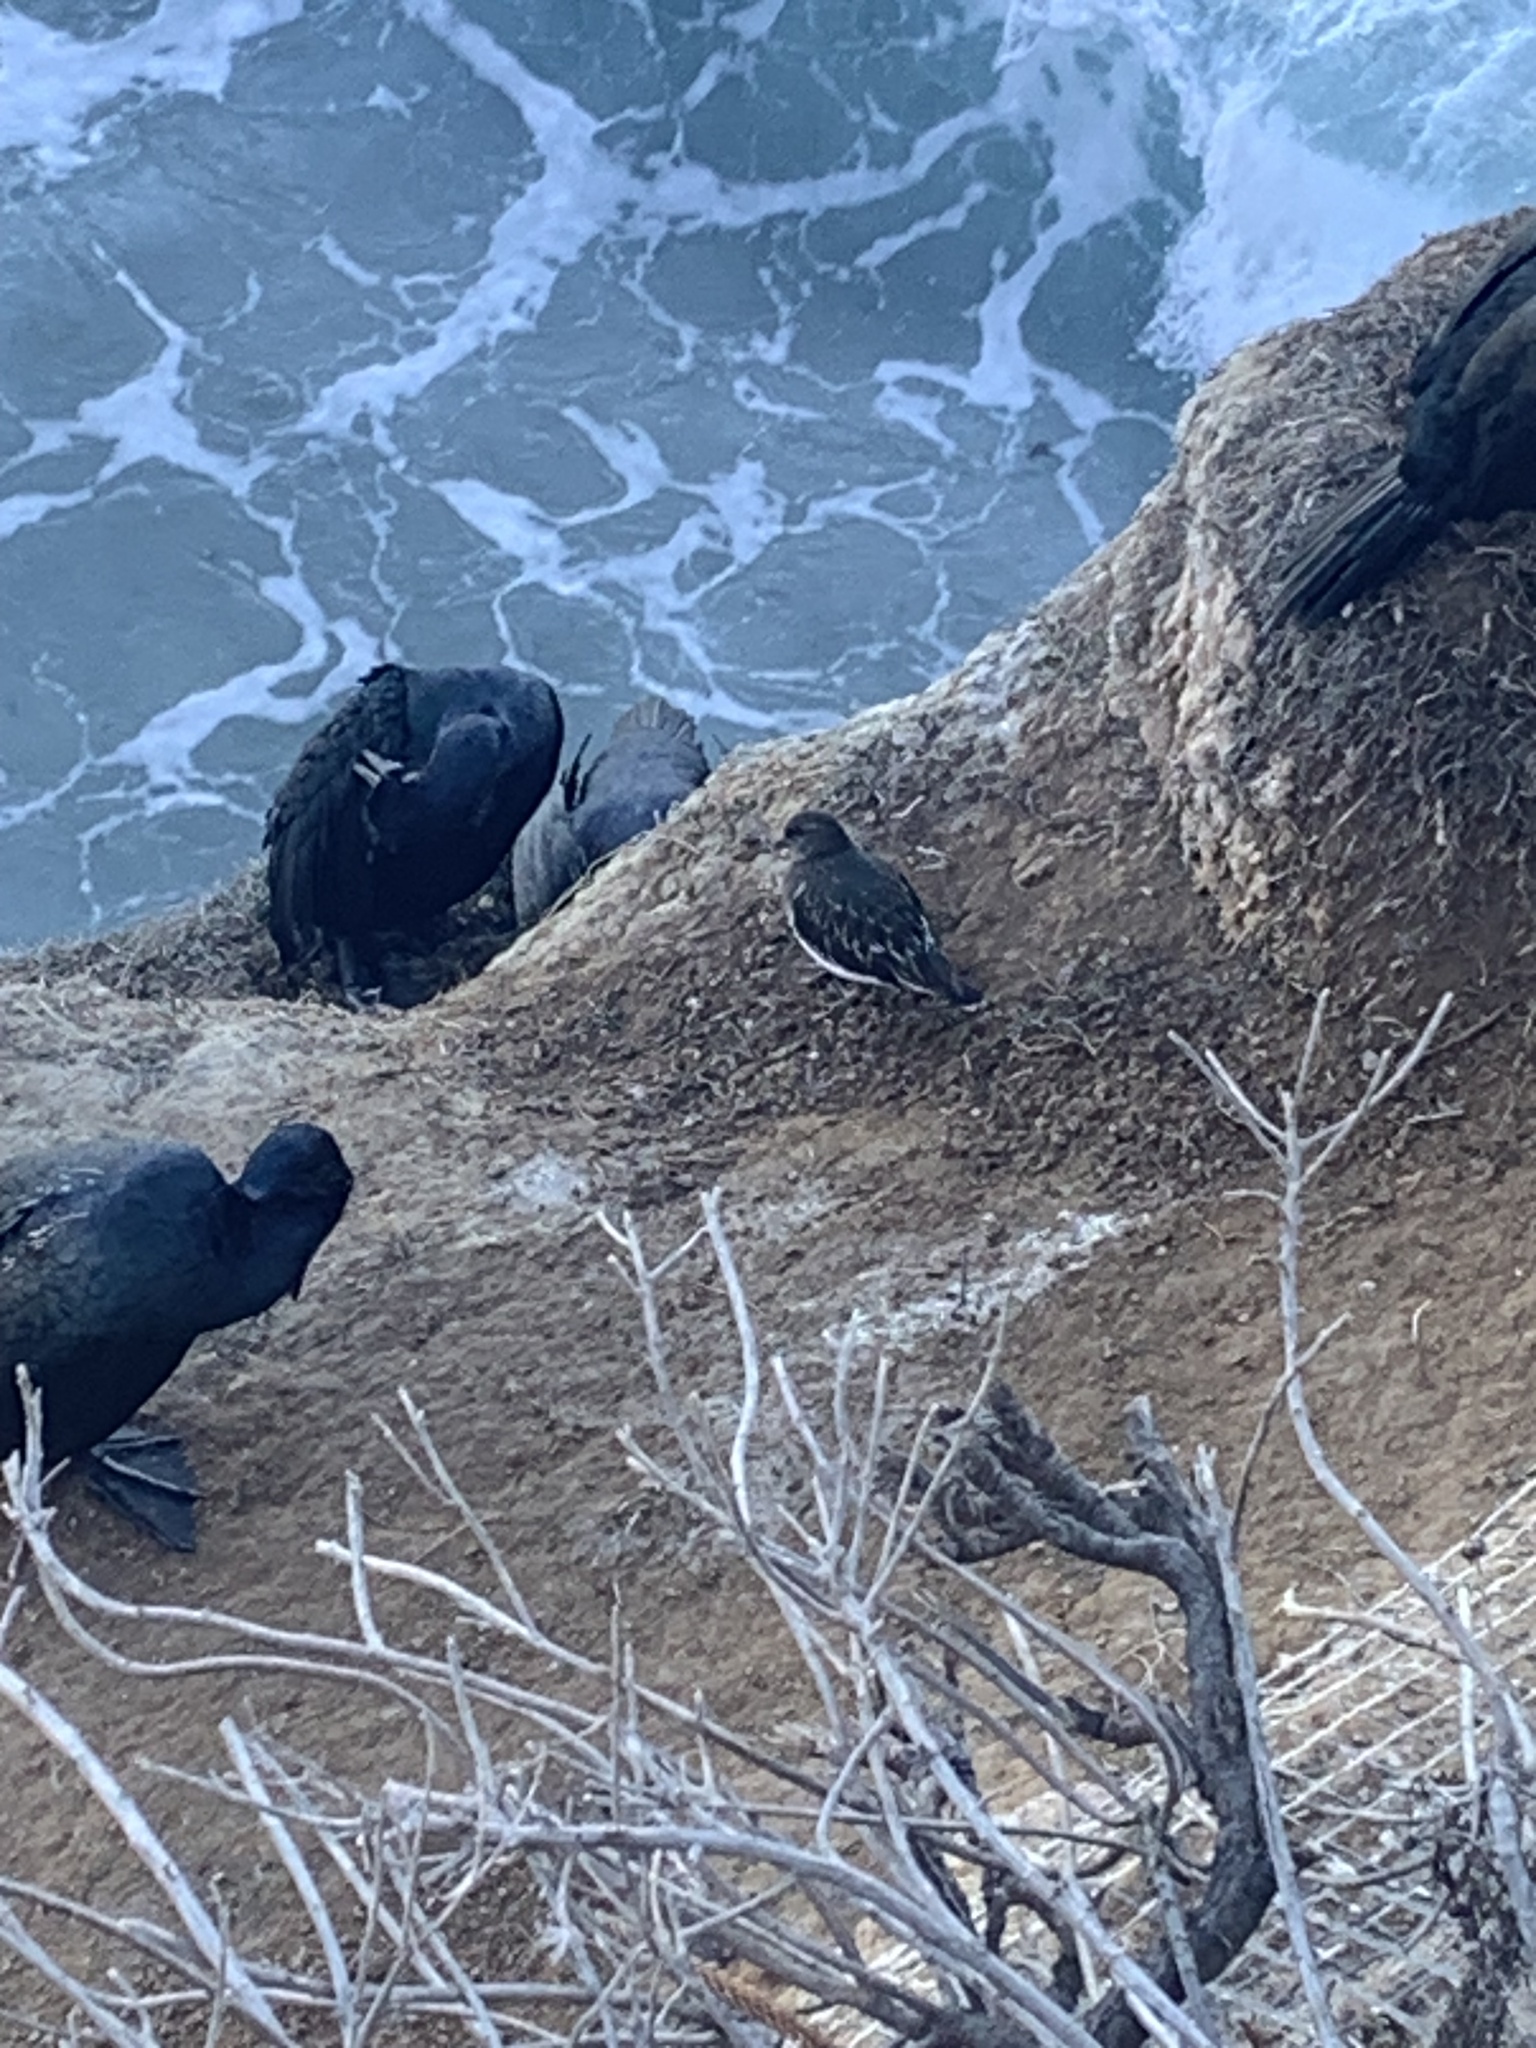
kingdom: Animalia
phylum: Chordata
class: Aves
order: Charadriiformes
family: Scolopacidae
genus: Arenaria
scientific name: Arenaria melanocephala
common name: Black turnstone
